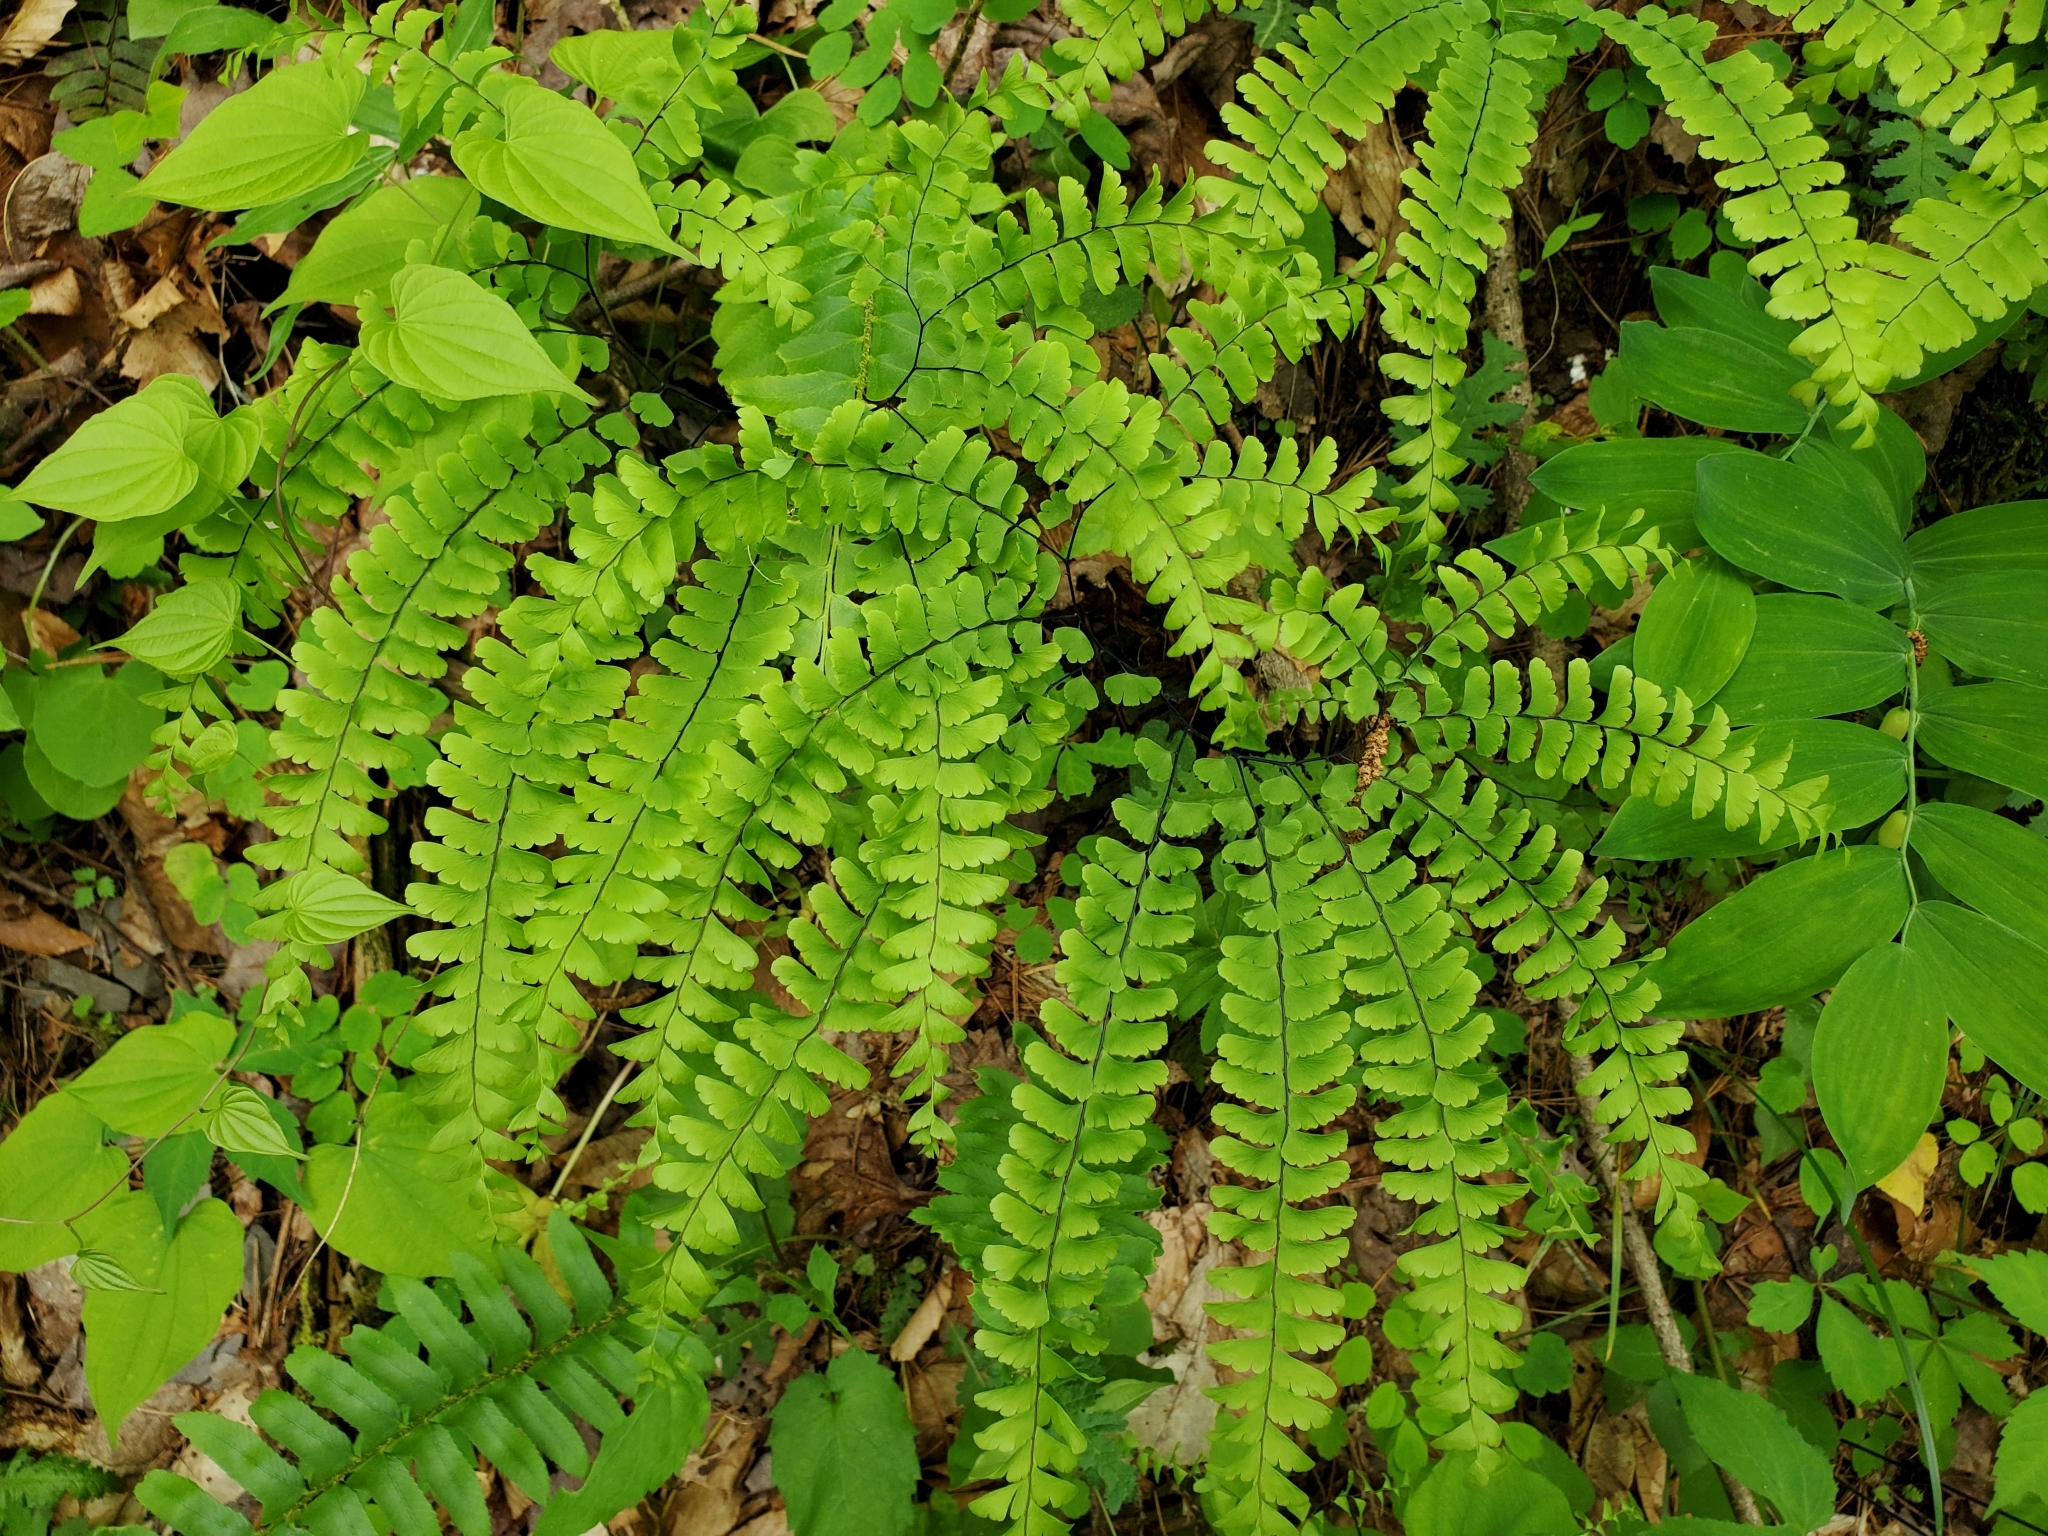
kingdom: Plantae
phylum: Tracheophyta
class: Polypodiopsida
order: Polypodiales
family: Pteridaceae
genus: Adiantum
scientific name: Adiantum pedatum
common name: Five-finger fern
